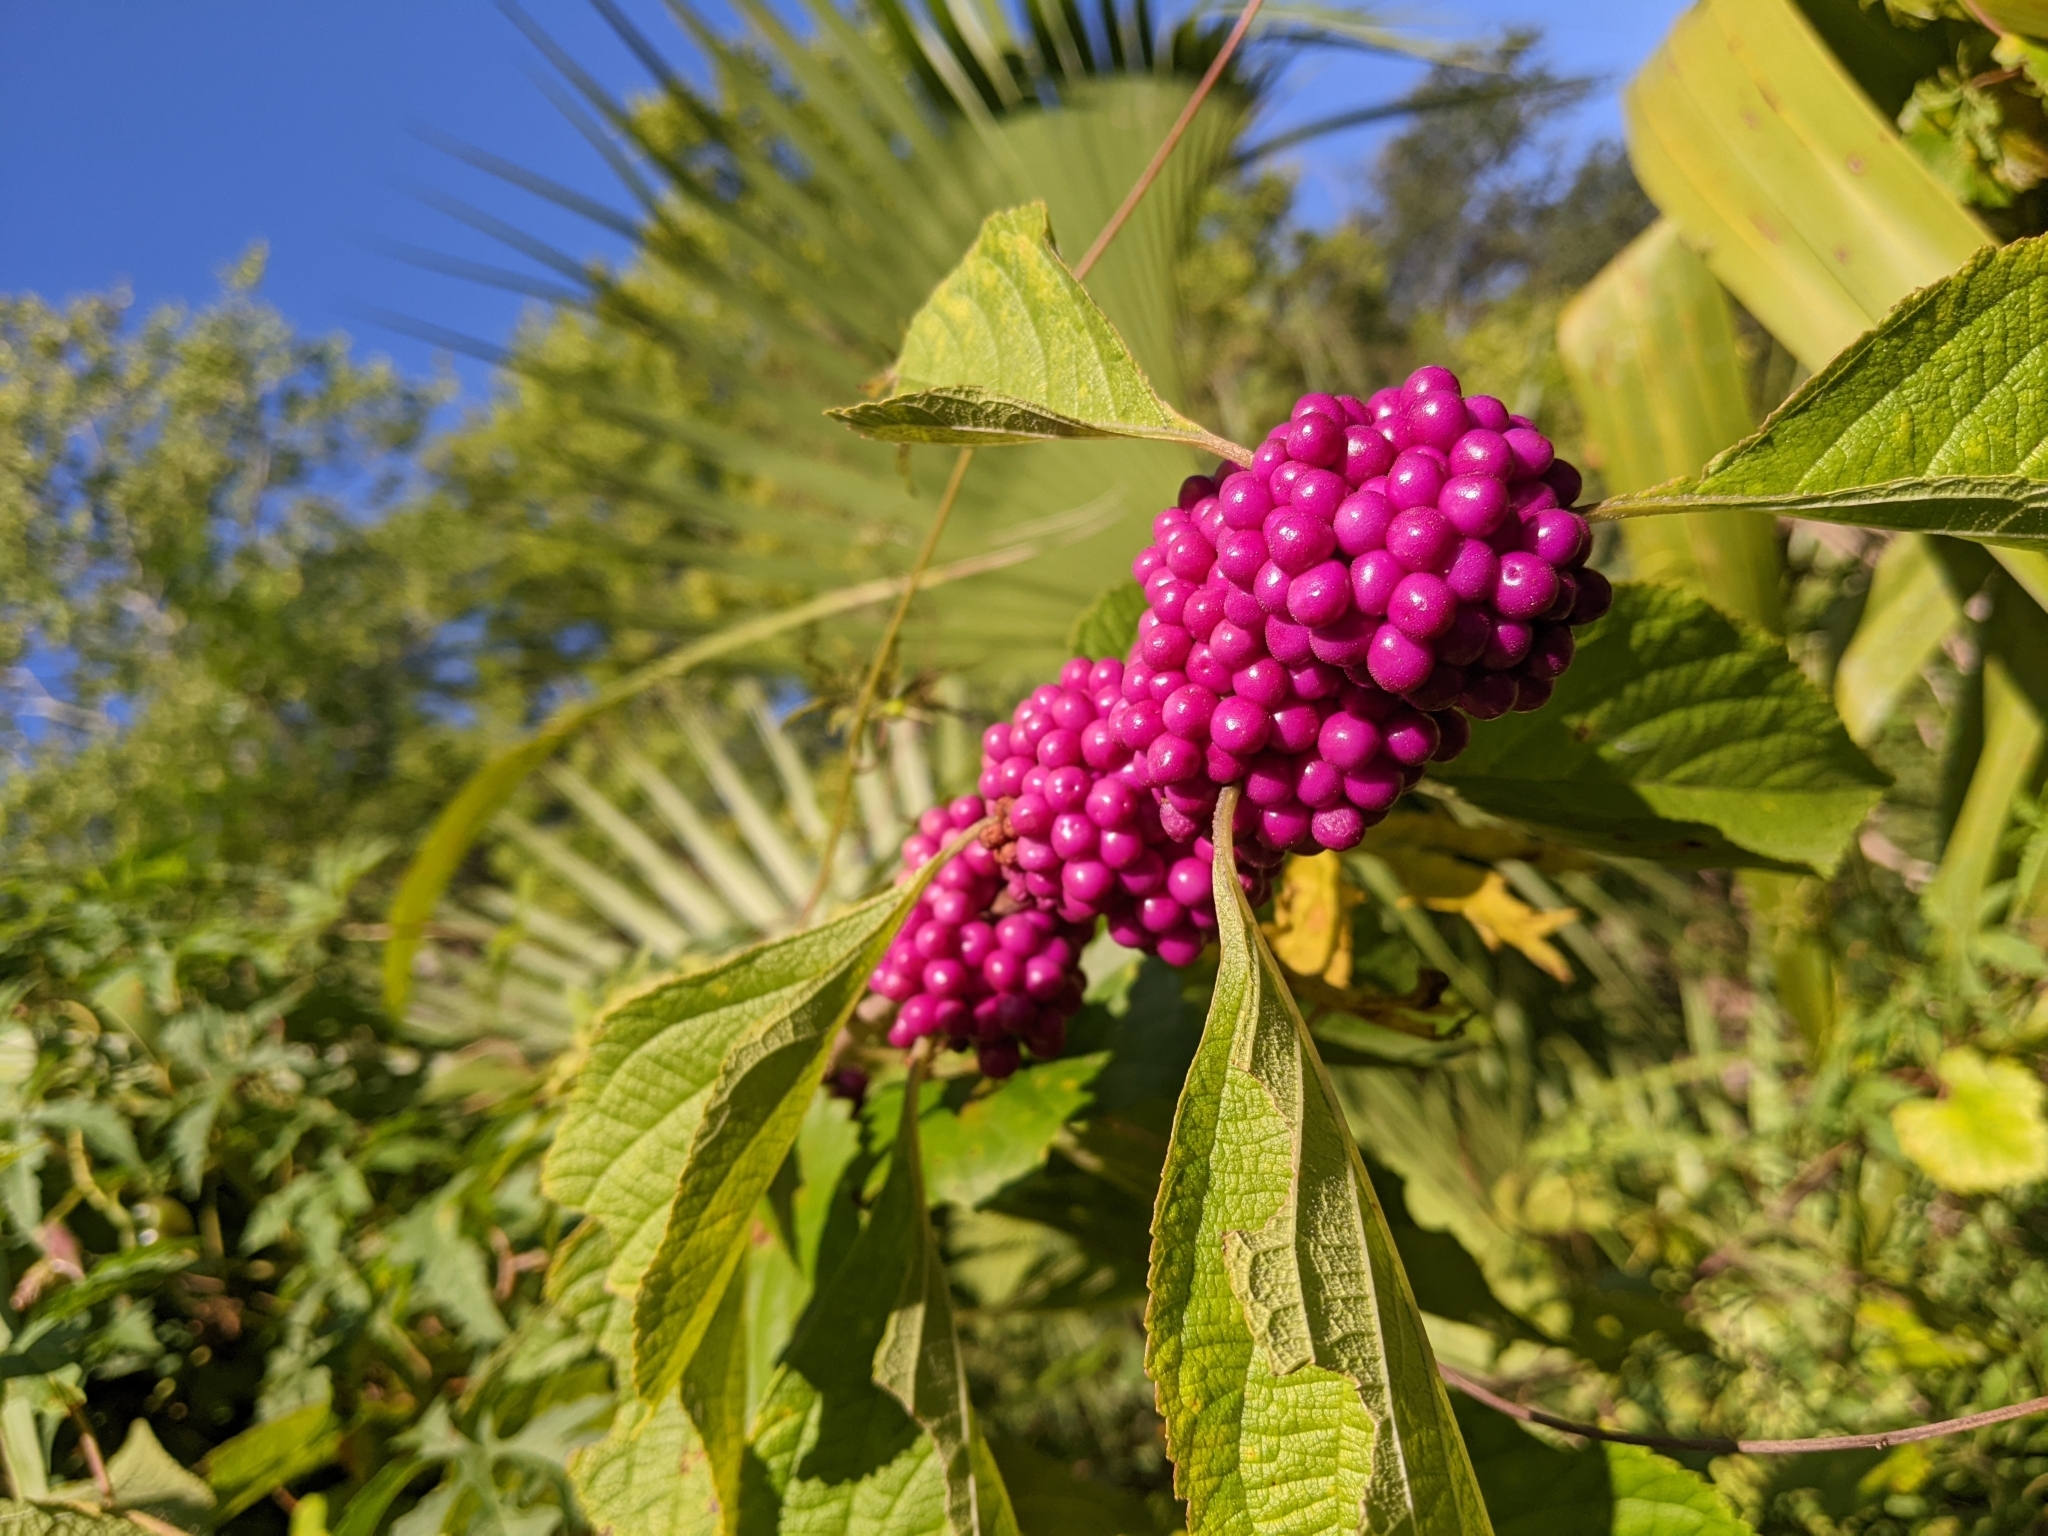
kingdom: Plantae
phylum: Tracheophyta
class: Magnoliopsida
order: Lamiales
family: Lamiaceae
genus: Callicarpa
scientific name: Callicarpa americana
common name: American beautyberry
